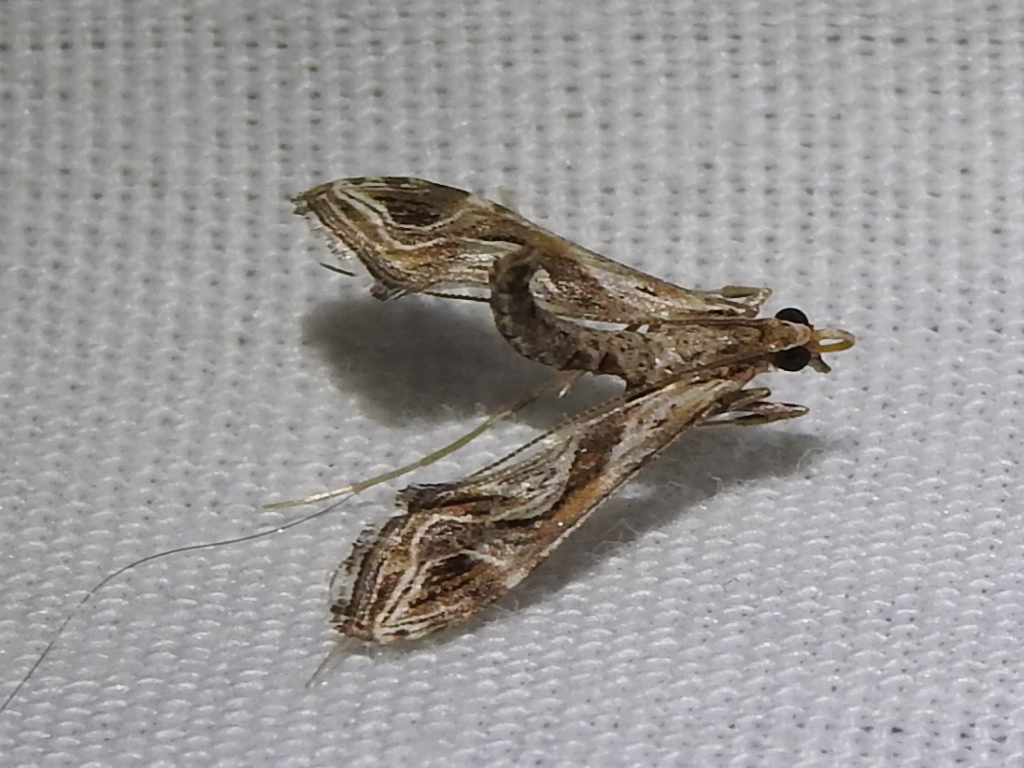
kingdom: Animalia
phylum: Arthropoda
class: Insecta
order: Lepidoptera
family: Crambidae
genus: Lineodes
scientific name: Lineodes integra
